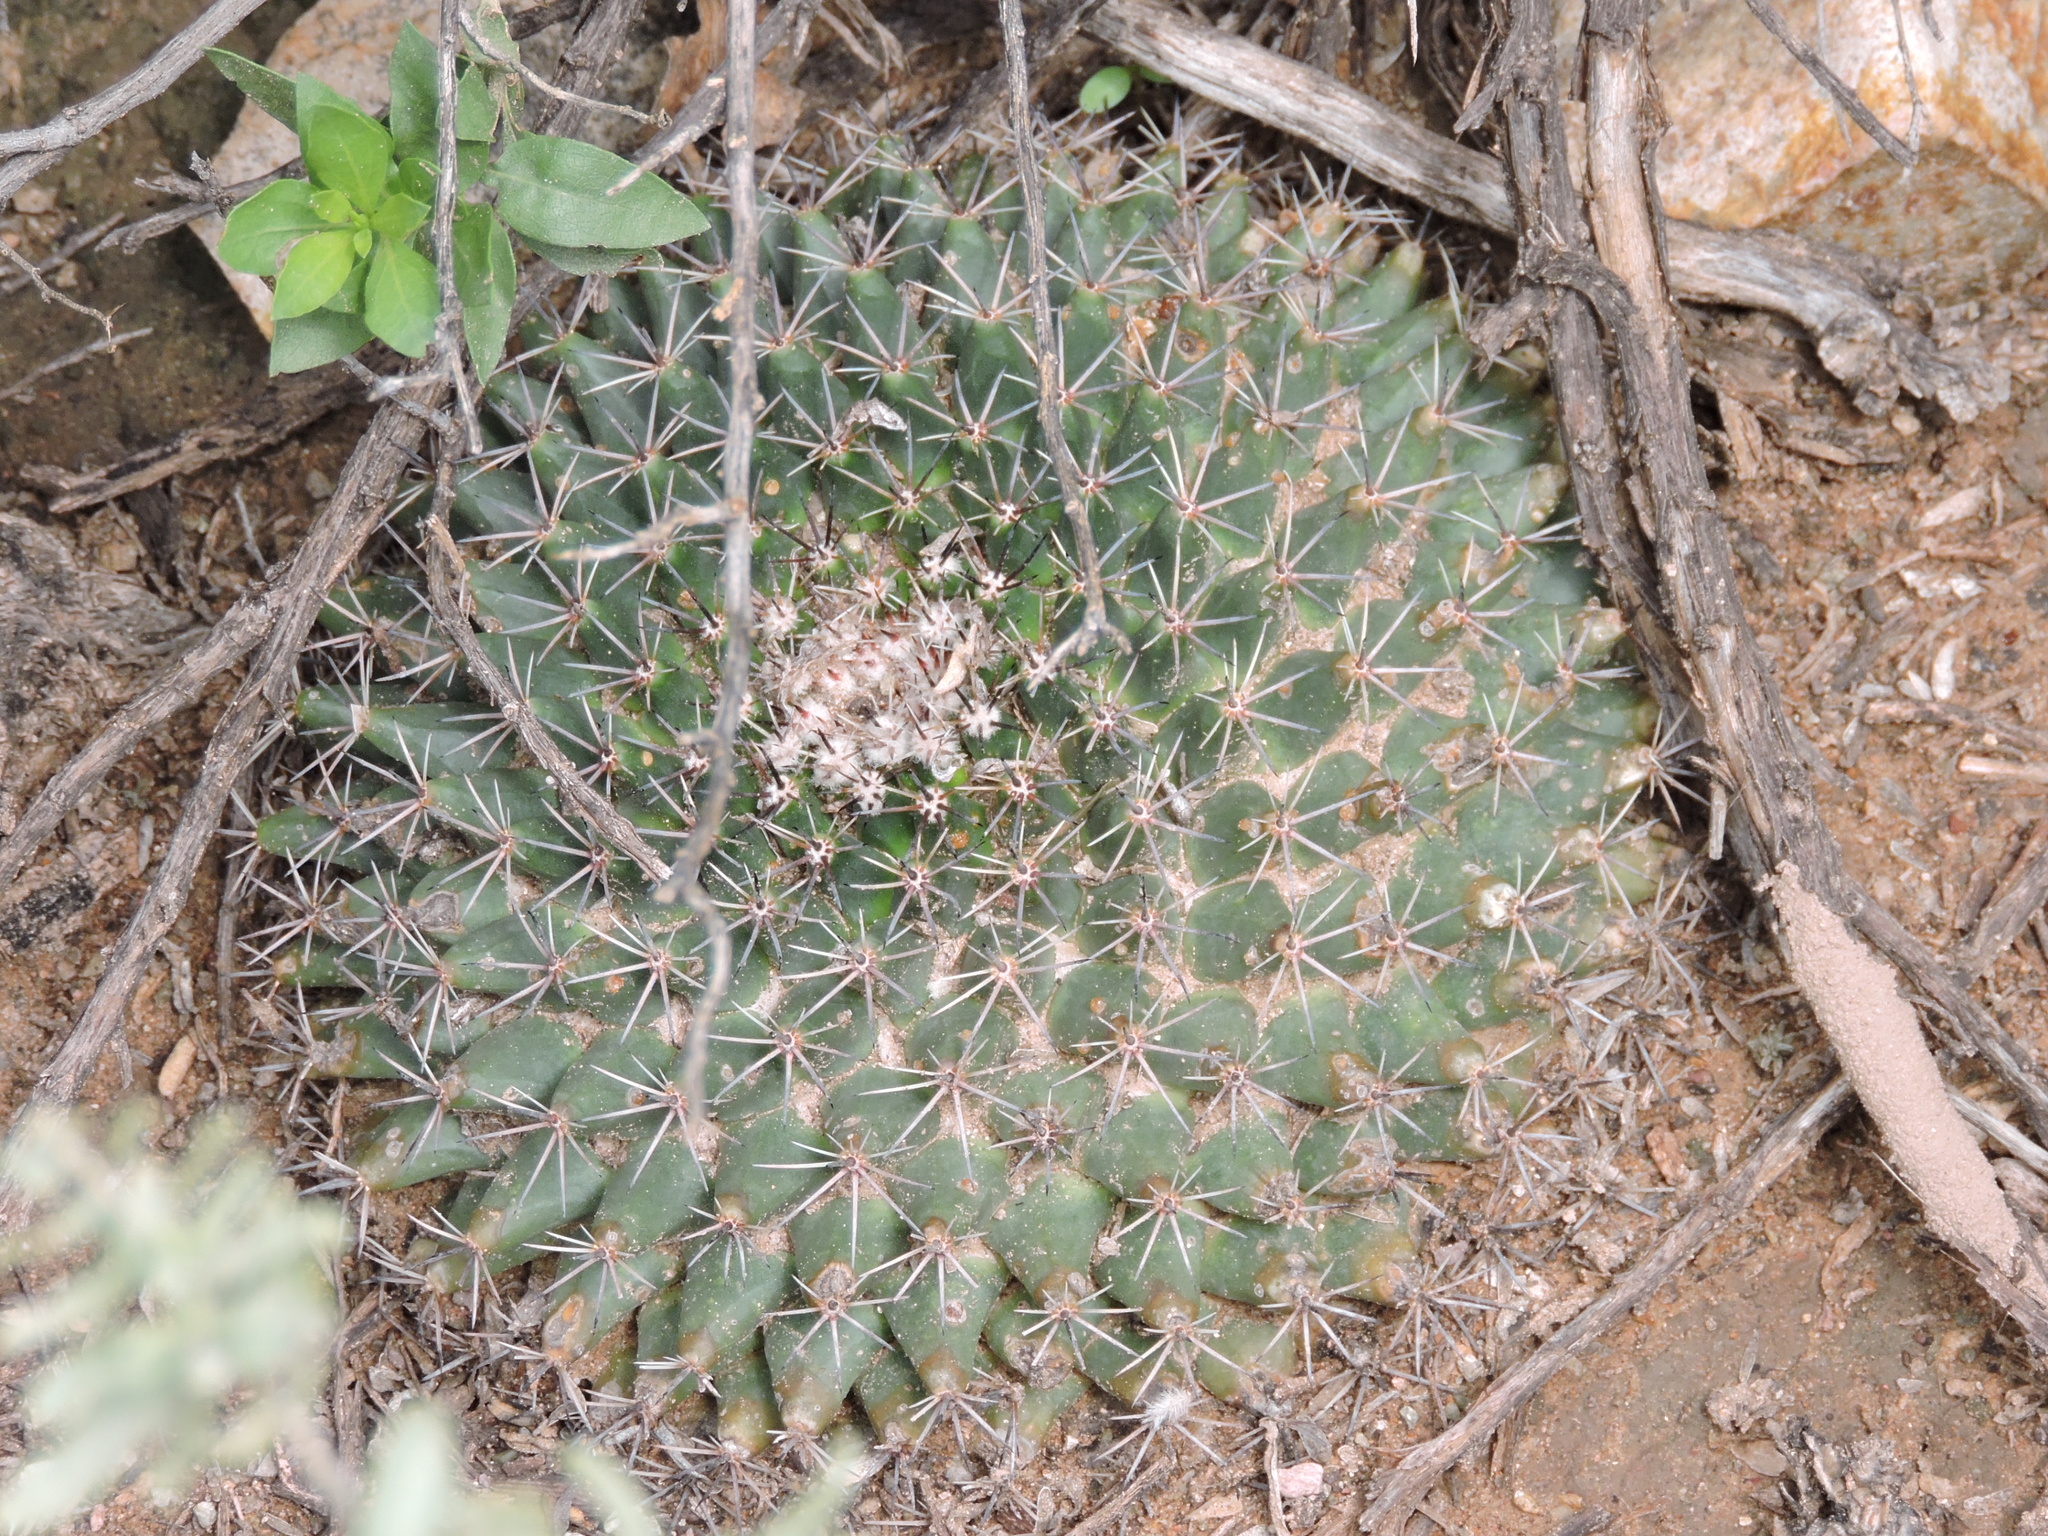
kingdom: Plantae
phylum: Tracheophyta
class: Magnoliopsida
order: Caryophyllales
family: Cactaceae
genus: Mammillaria
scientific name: Mammillaria heyderi
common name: Little nipple cactus
